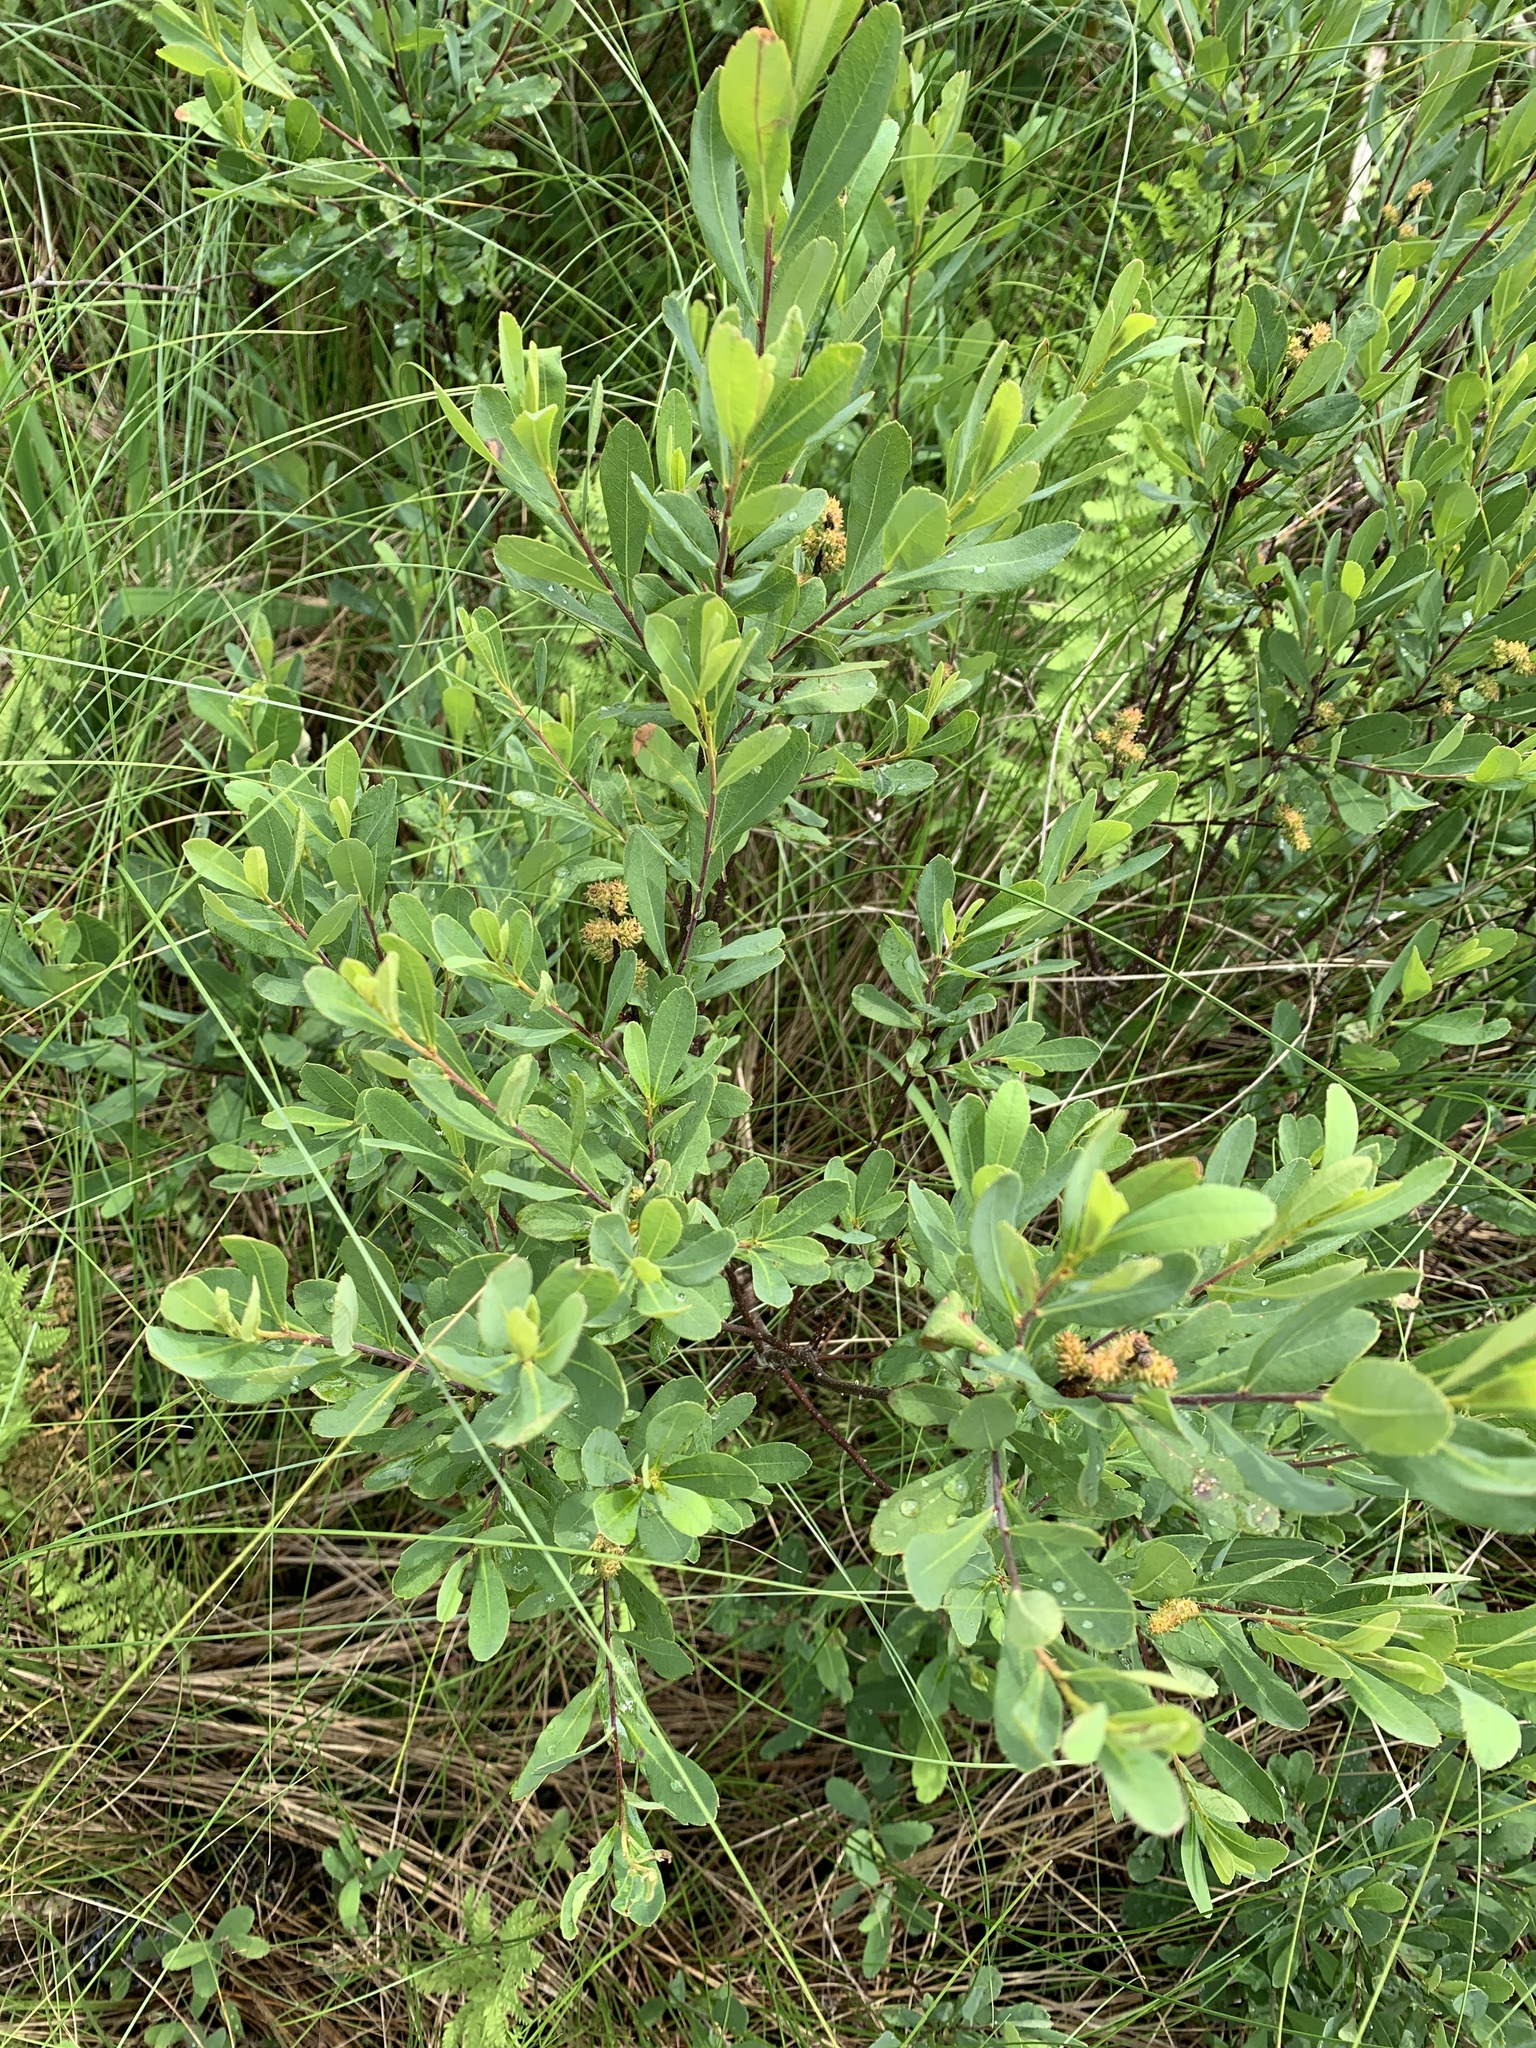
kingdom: Plantae
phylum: Tracheophyta
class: Magnoliopsida
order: Fagales
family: Myricaceae
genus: Myrica
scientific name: Myrica gale
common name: Sweet gale
